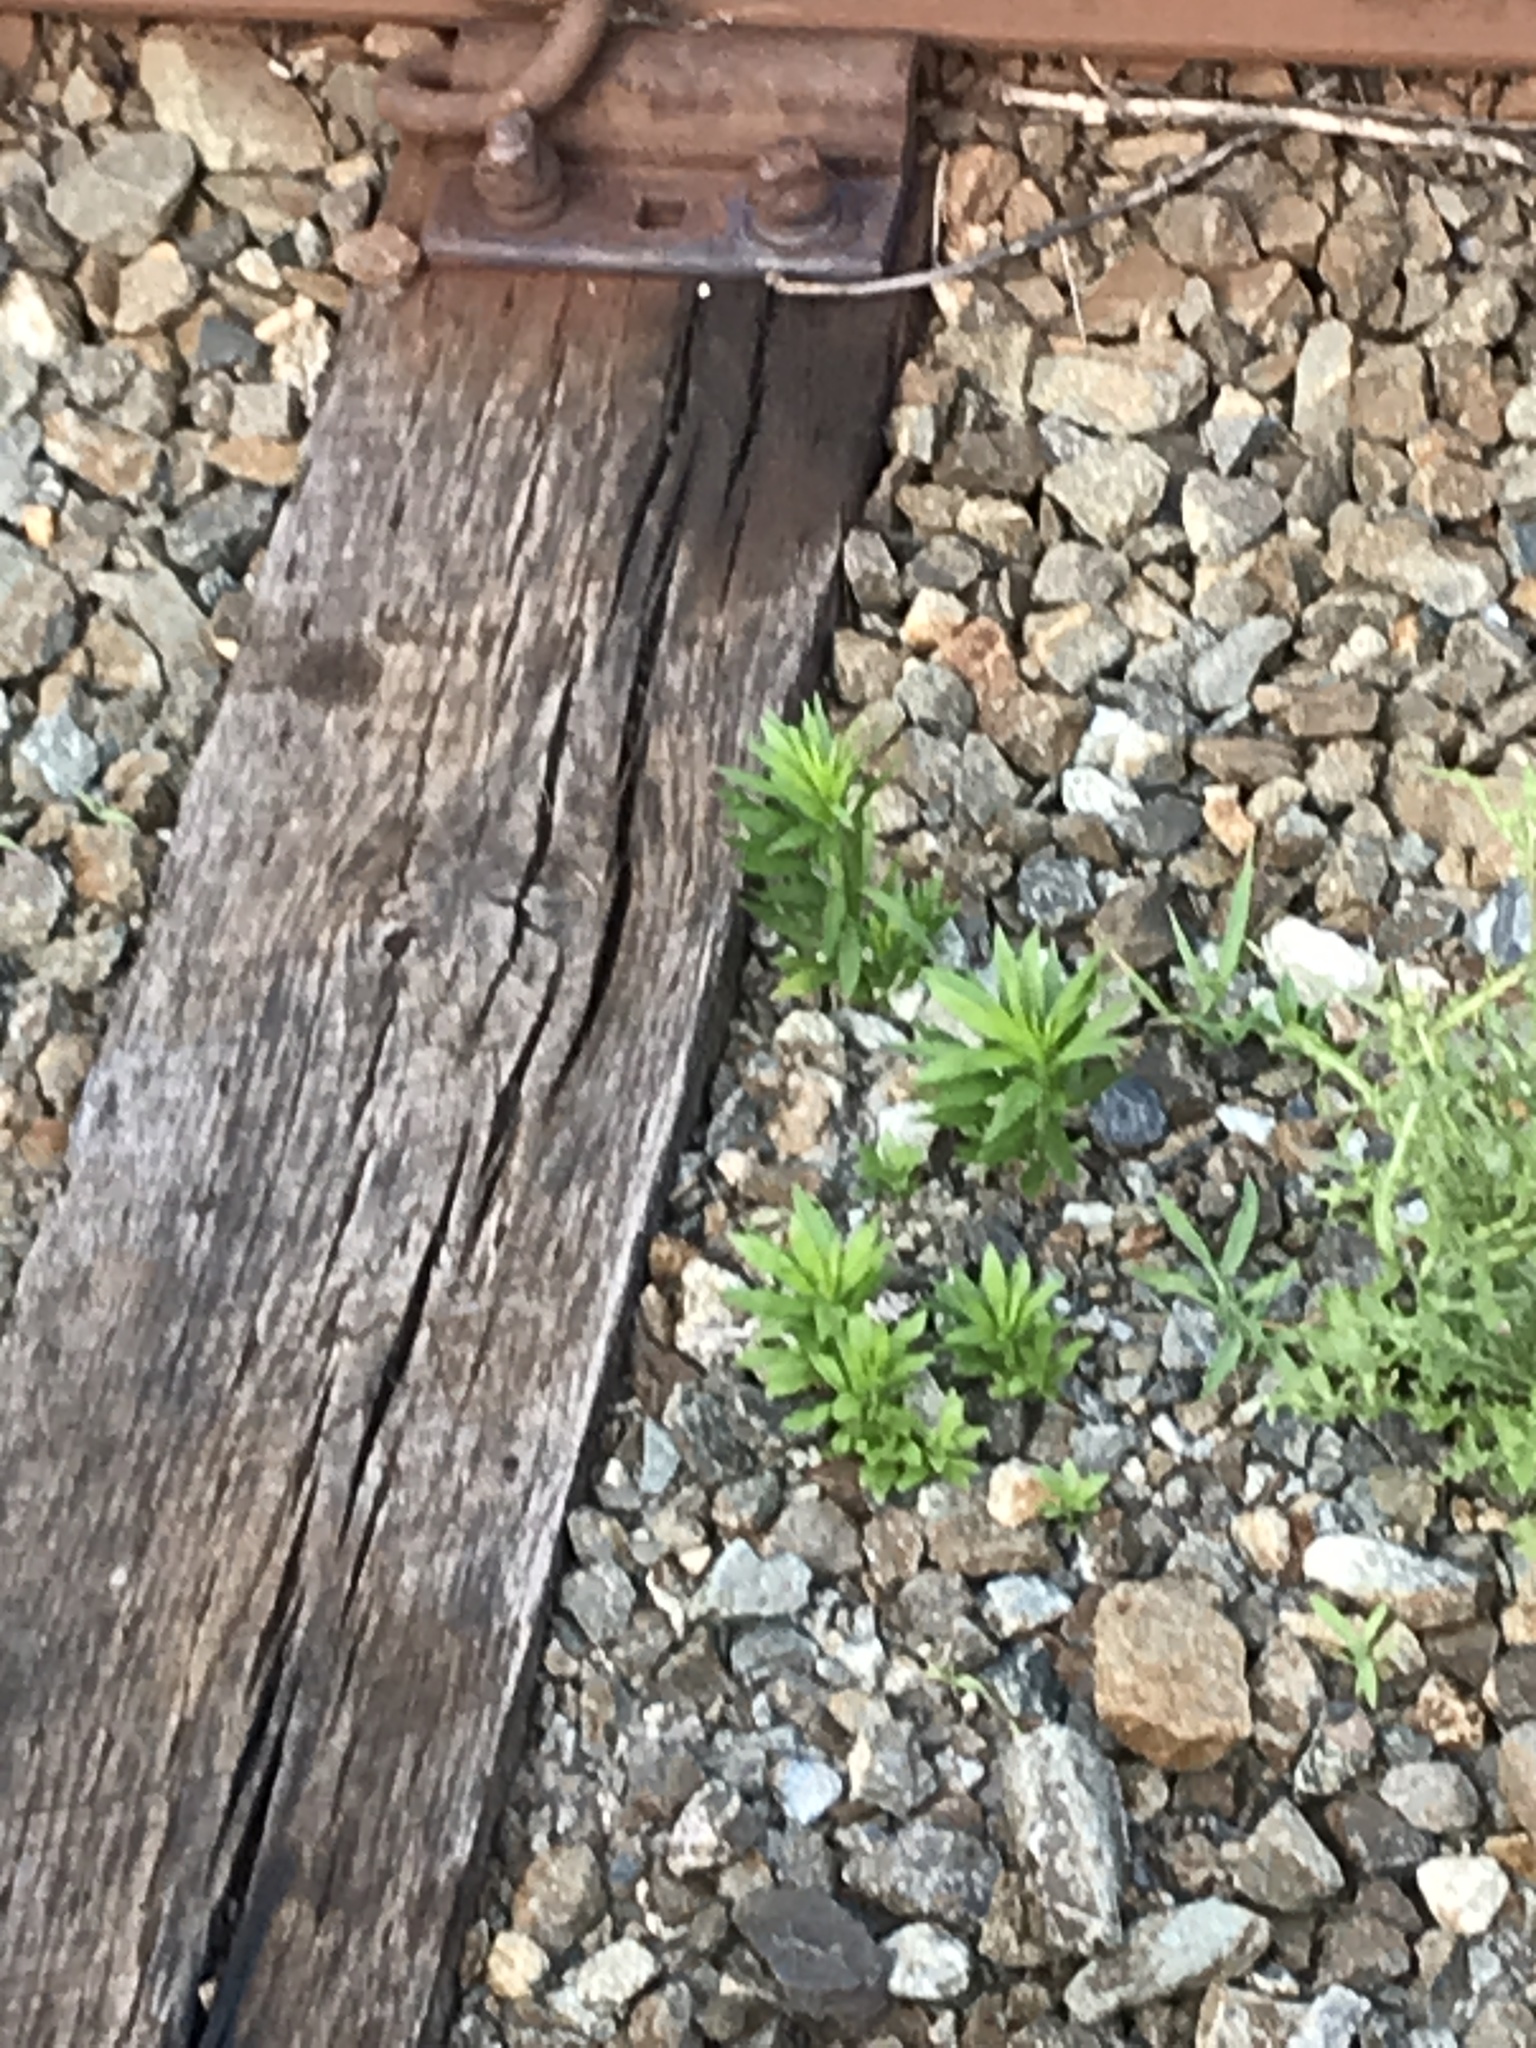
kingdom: Plantae
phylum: Tracheophyta
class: Magnoliopsida
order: Asterales
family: Asteraceae
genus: Erigeron
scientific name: Erigeron canadensis
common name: Canadian fleabane
